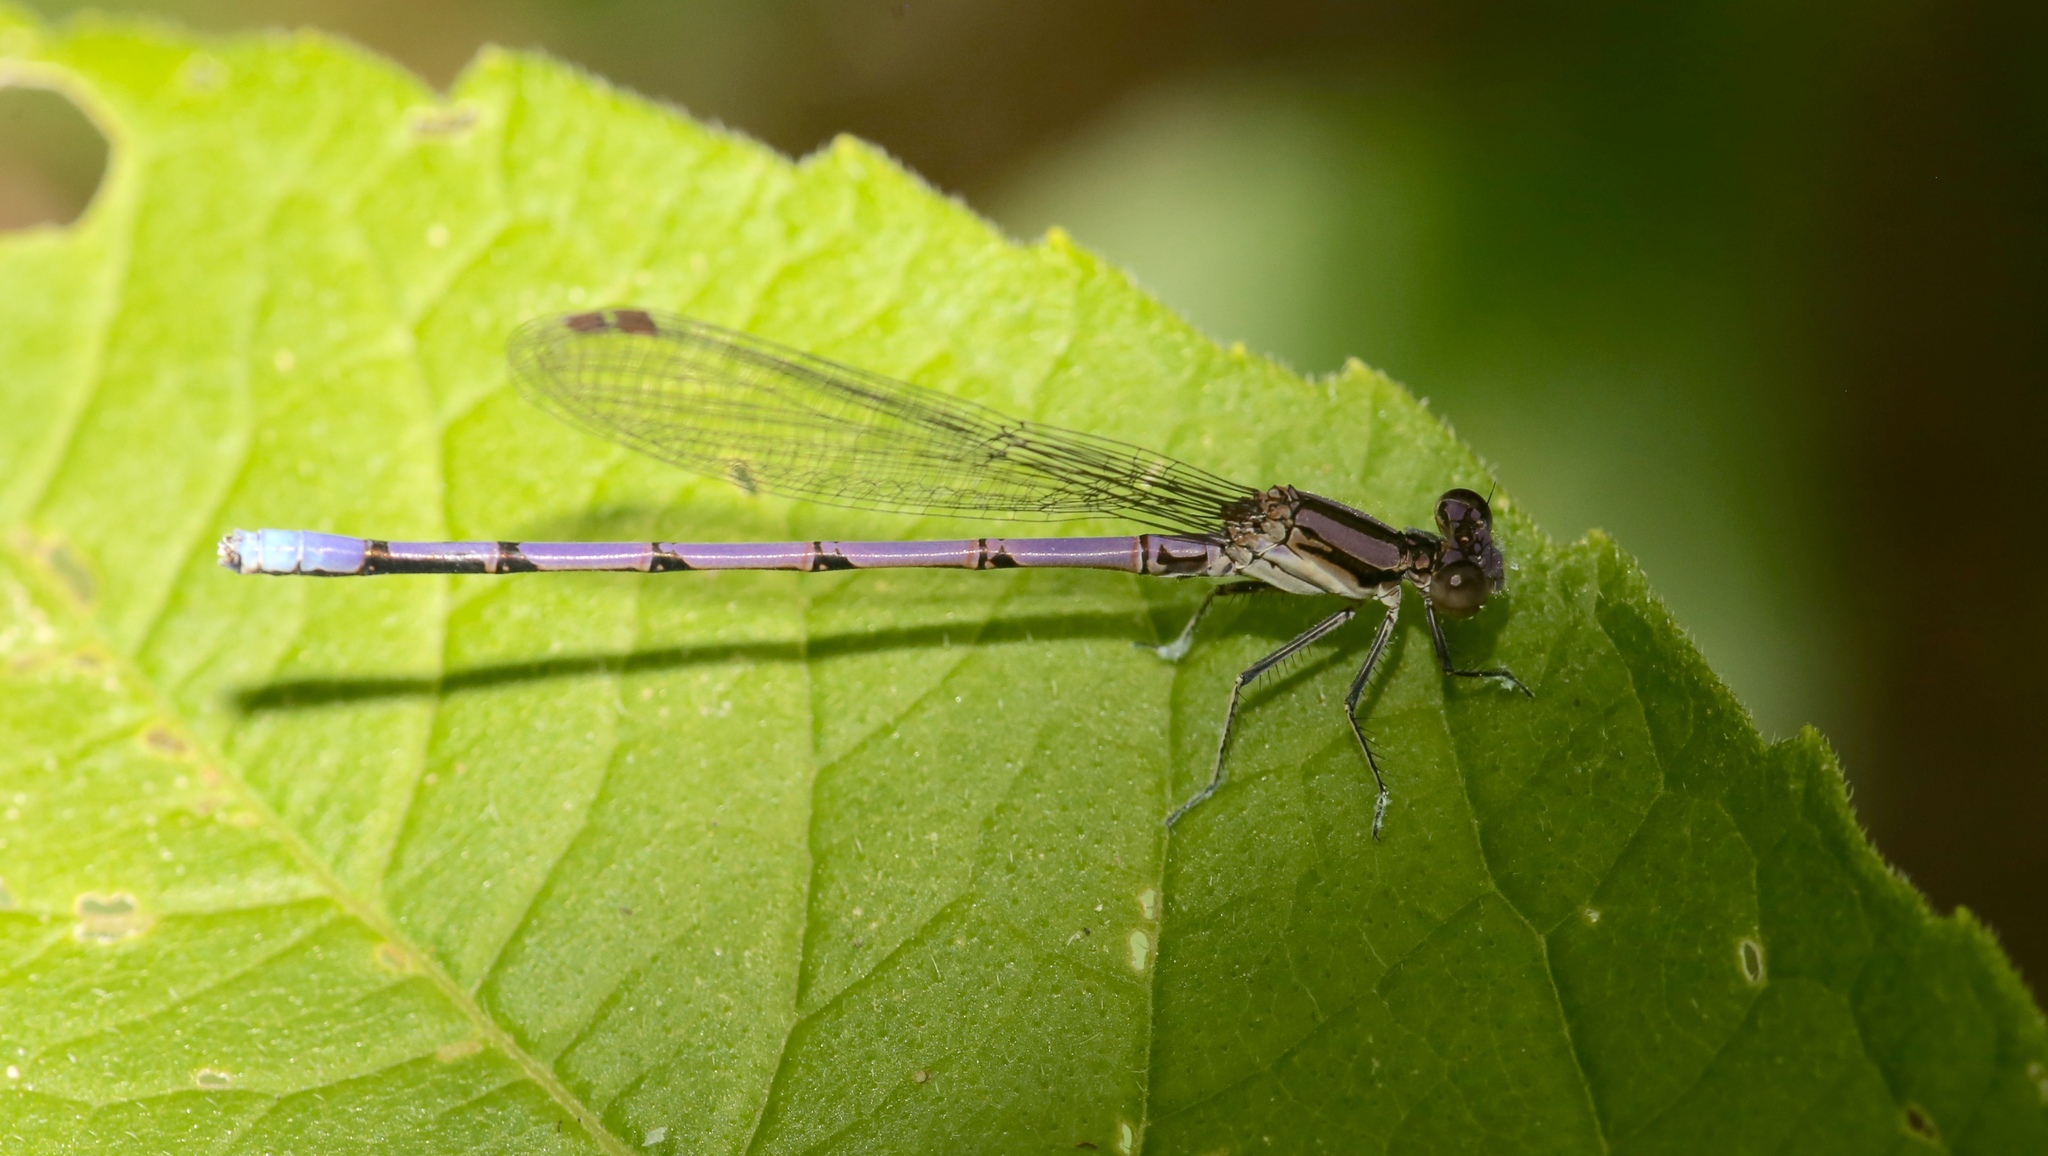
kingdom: Animalia
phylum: Arthropoda
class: Insecta
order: Odonata
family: Coenagrionidae
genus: Argia
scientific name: Argia fumipennis
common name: Variable dancer
